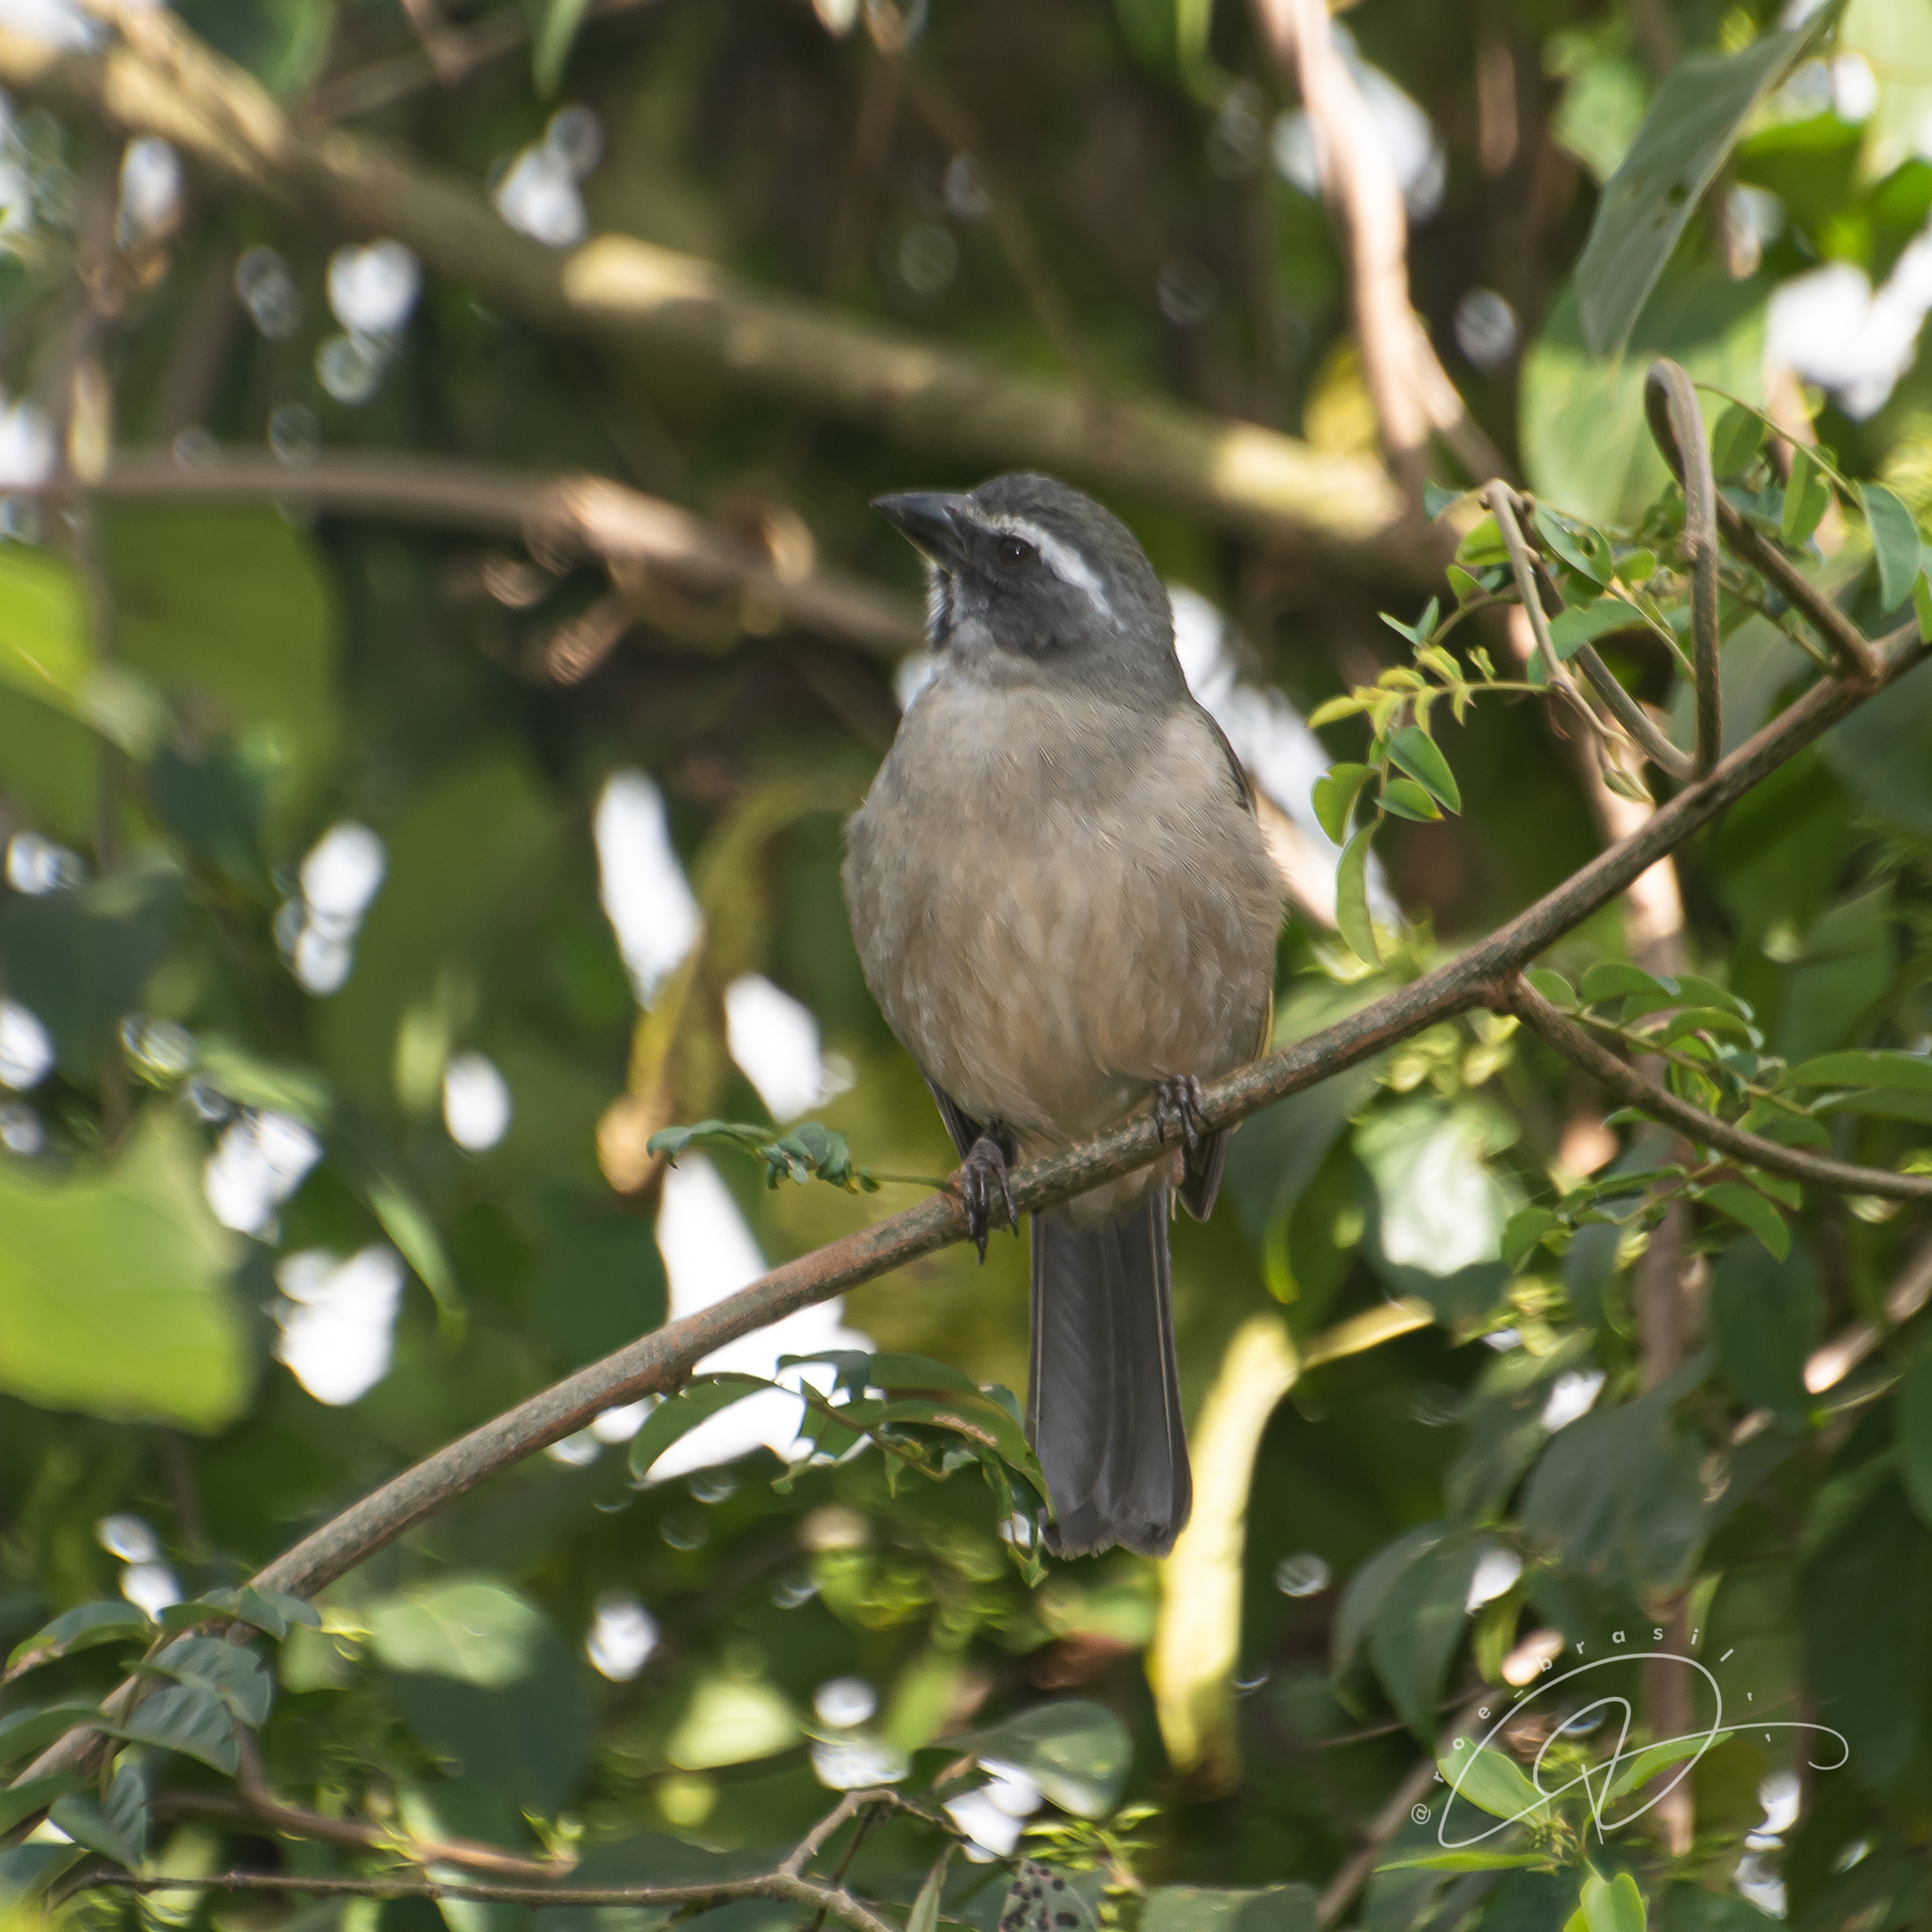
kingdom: Animalia
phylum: Chordata
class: Aves
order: Passeriformes
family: Thraupidae
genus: Saltator
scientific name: Saltator similis
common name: Green-winged saltator
